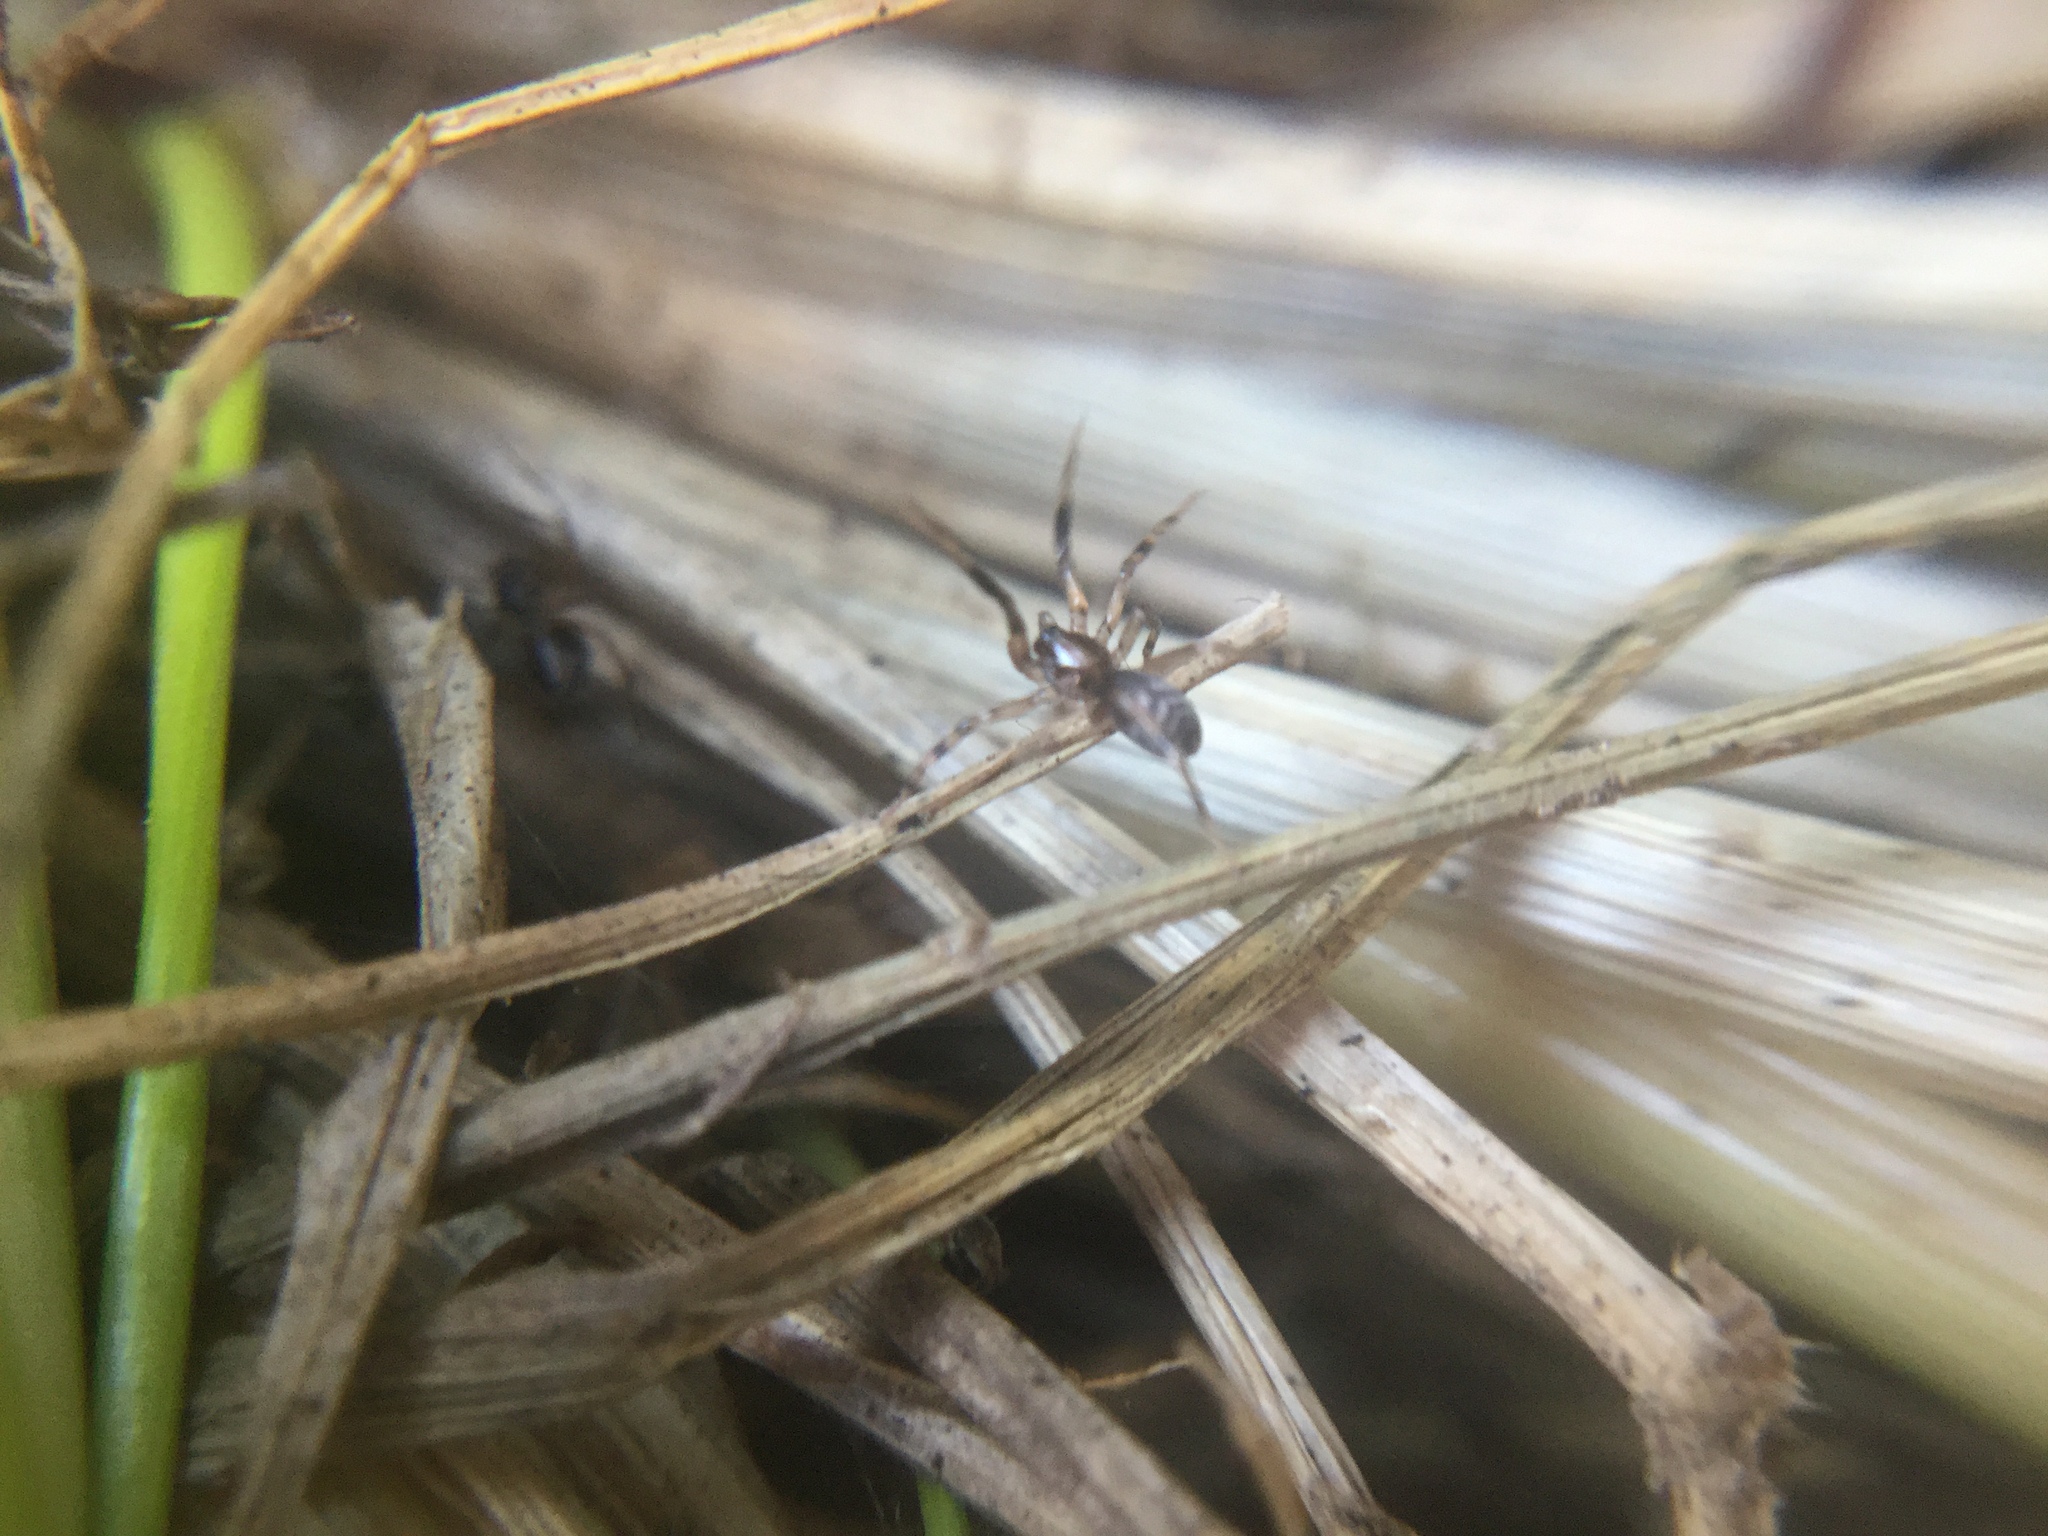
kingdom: Animalia
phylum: Arthropoda
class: Arachnida
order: Araneae
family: Phrurolithidae
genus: Phrurotimpus
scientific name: Phrurotimpus borealis
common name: Greater ant-mimic corinne spider
